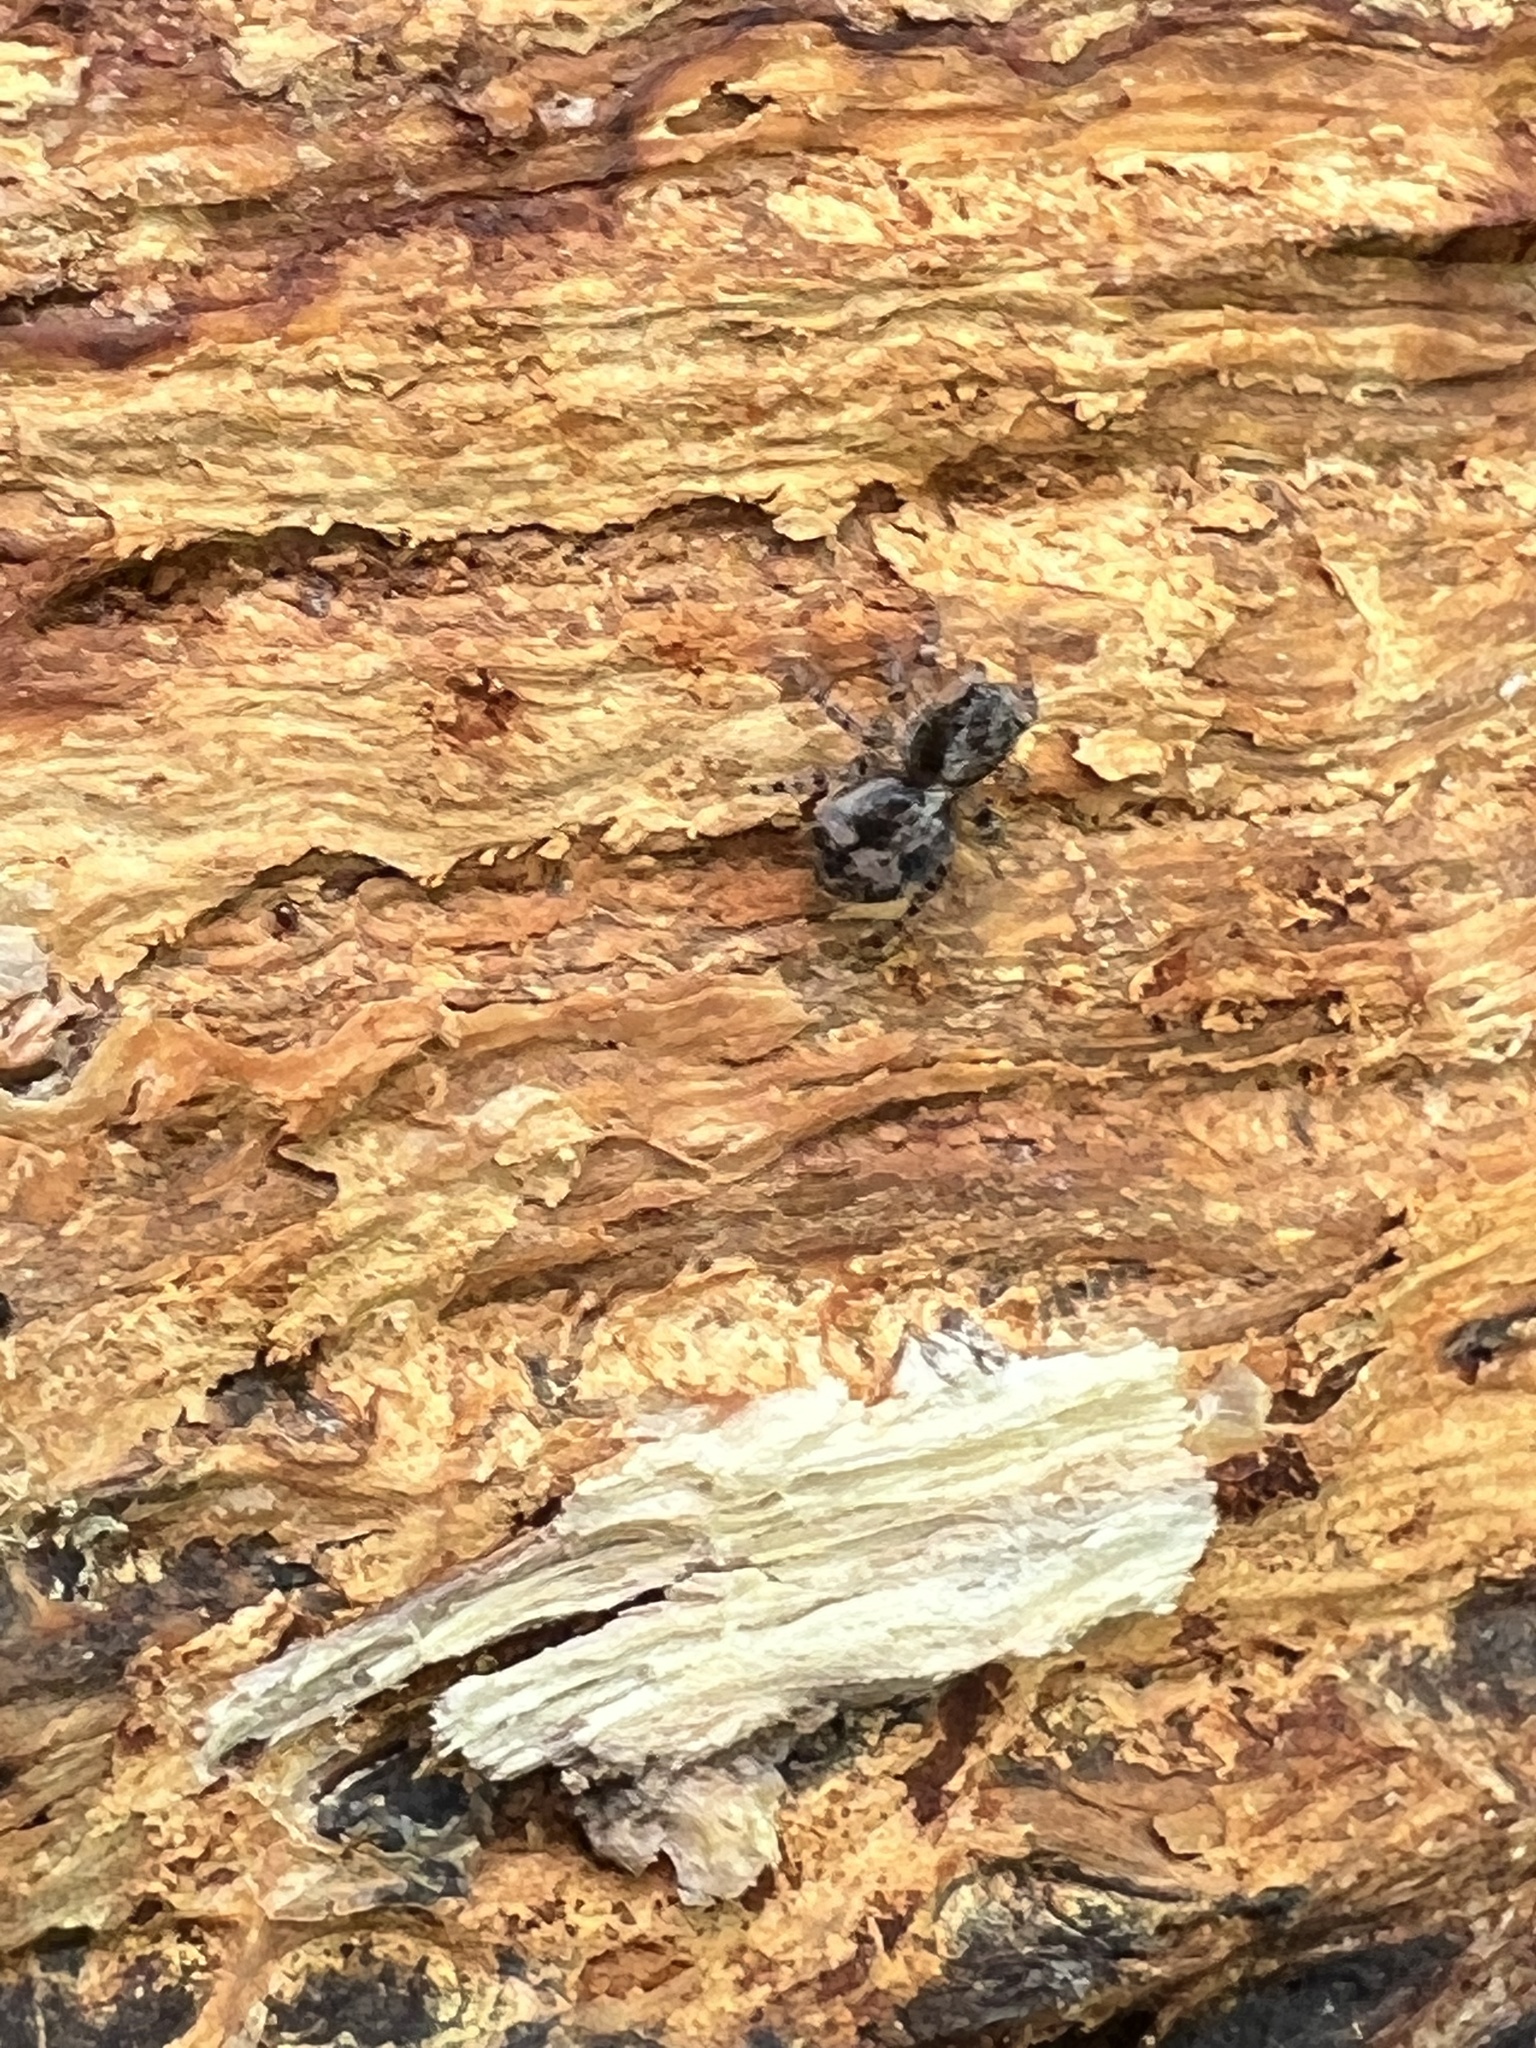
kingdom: Animalia
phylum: Arthropoda
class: Arachnida
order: Araneae
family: Salticidae
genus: Naphrys
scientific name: Naphrys pulex
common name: Flea jumping spider
